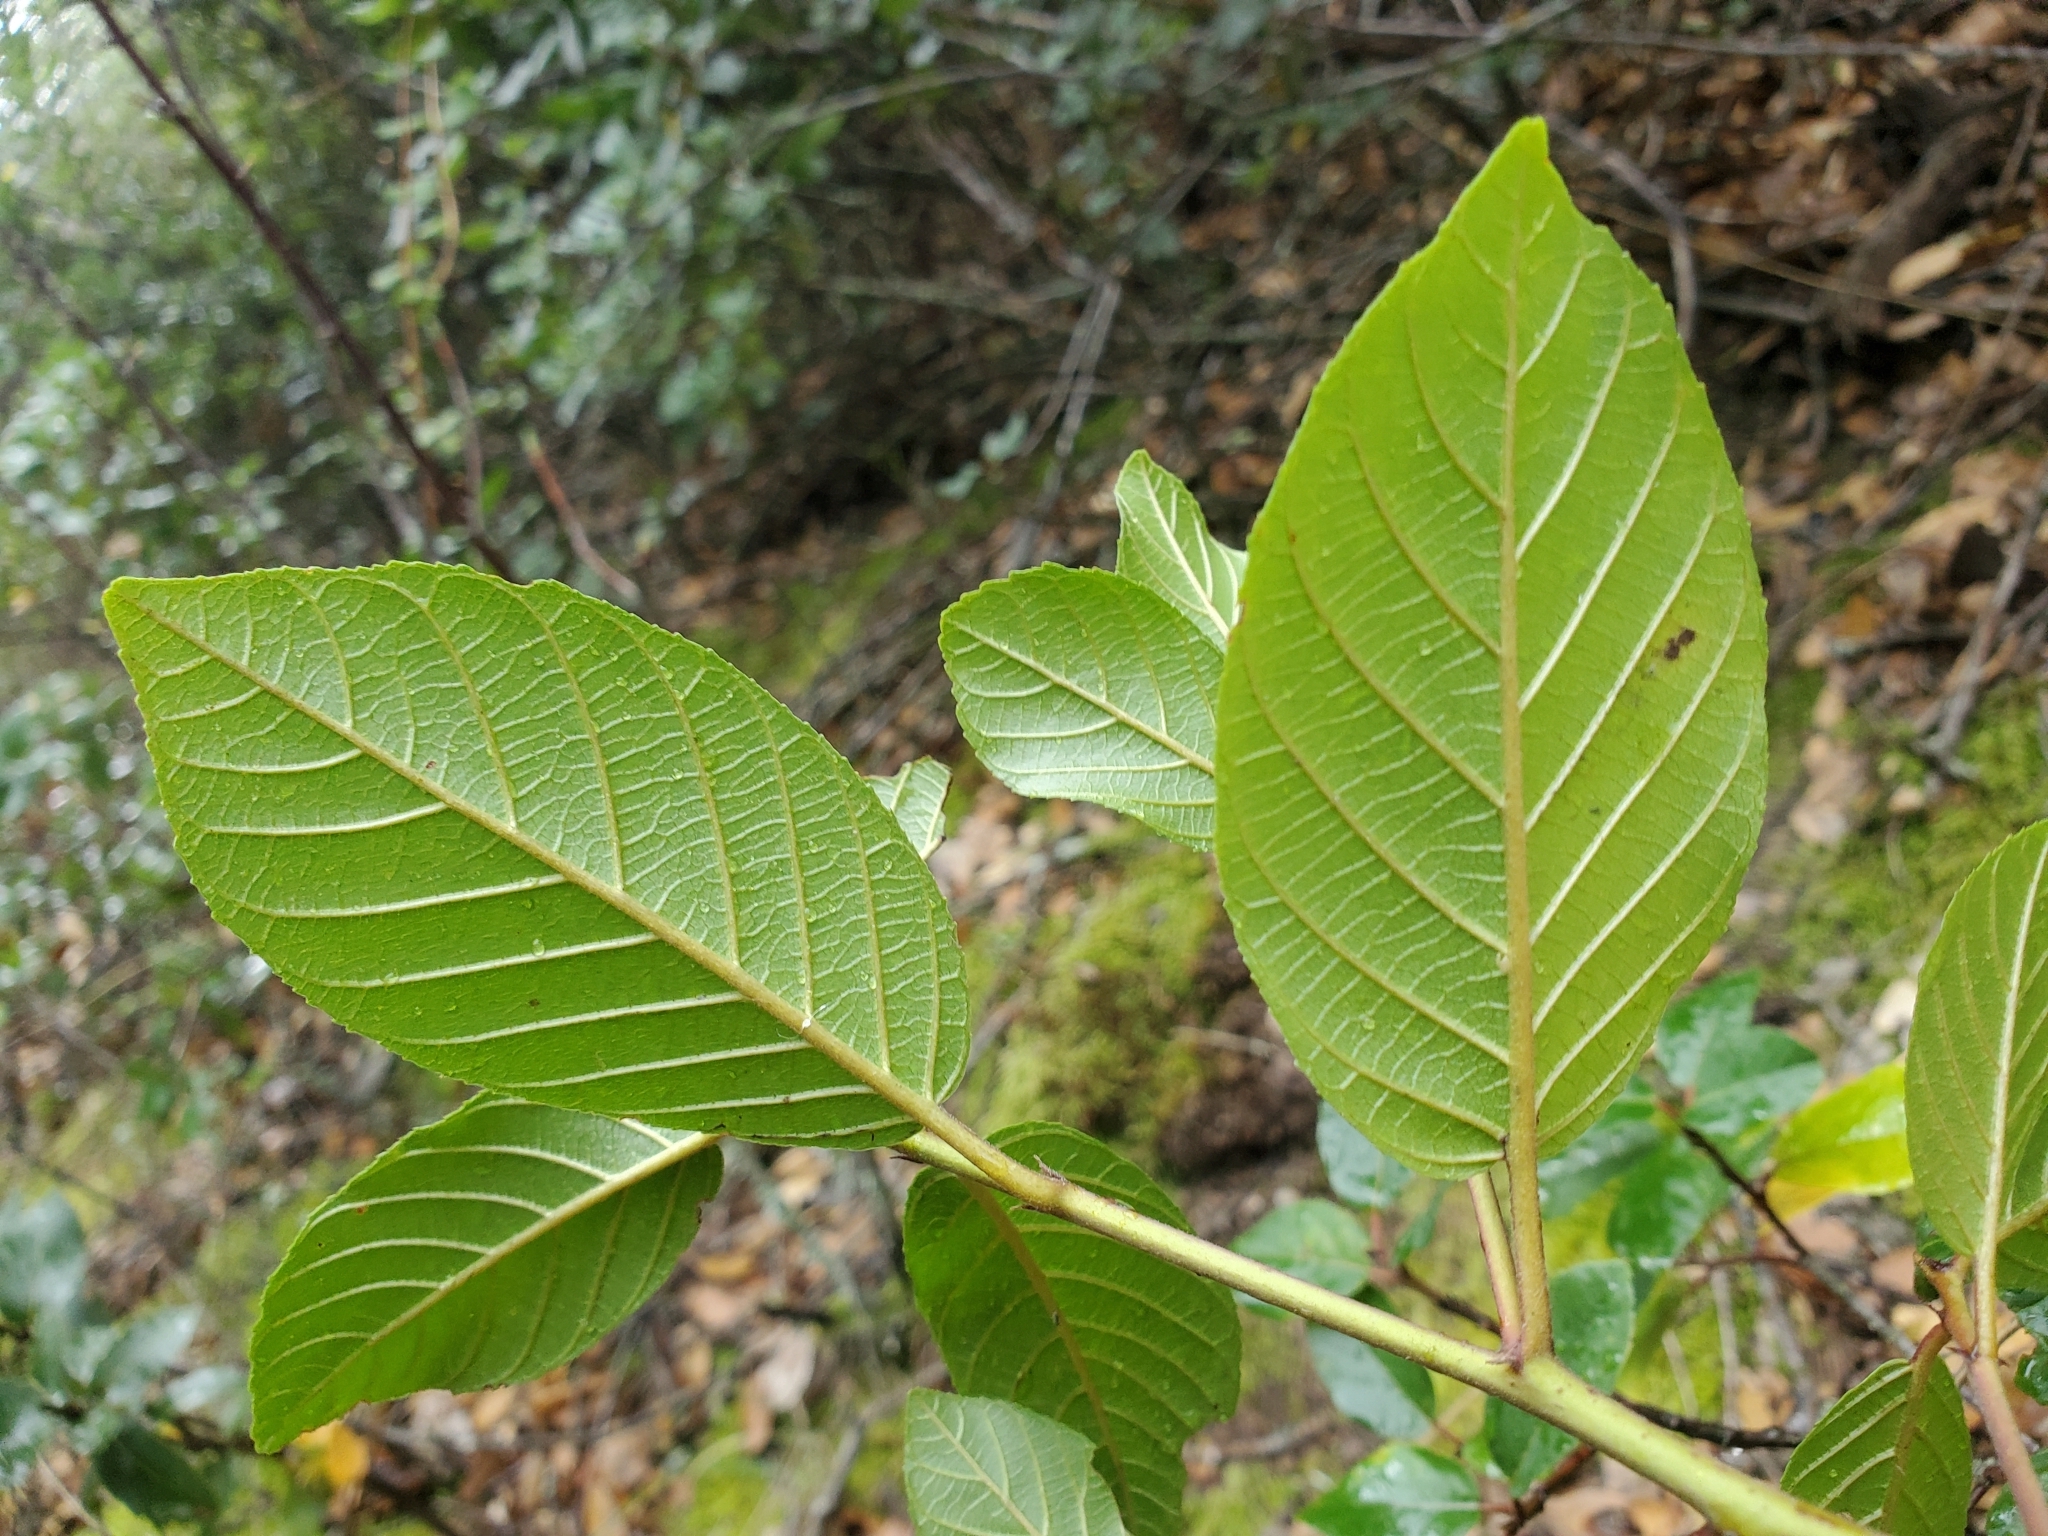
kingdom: Plantae
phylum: Tracheophyta
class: Magnoliopsida
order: Rosales
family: Rhamnaceae
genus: Frangula
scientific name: Frangula californica
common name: California buckthorn
